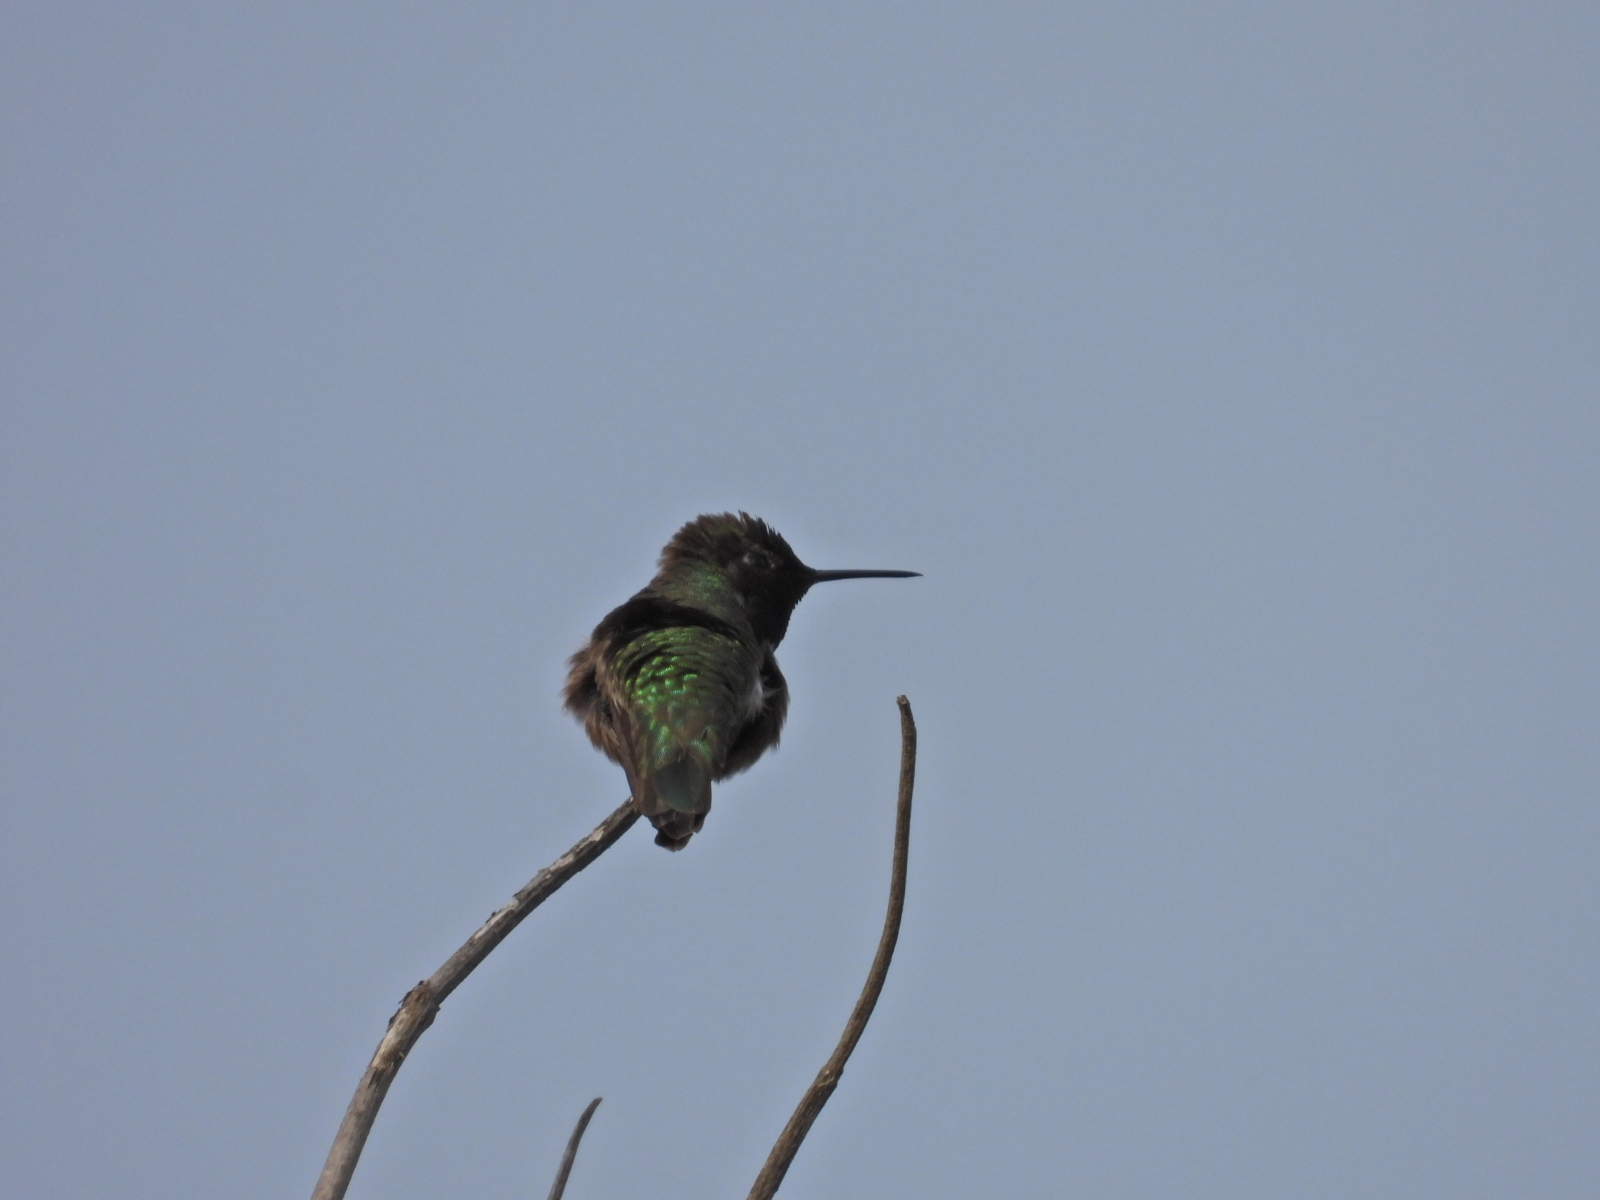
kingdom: Animalia
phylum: Chordata
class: Aves
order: Apodiformes
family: Trochilidae
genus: Calypte
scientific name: Calypte anna
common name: Anna's hummingbird
